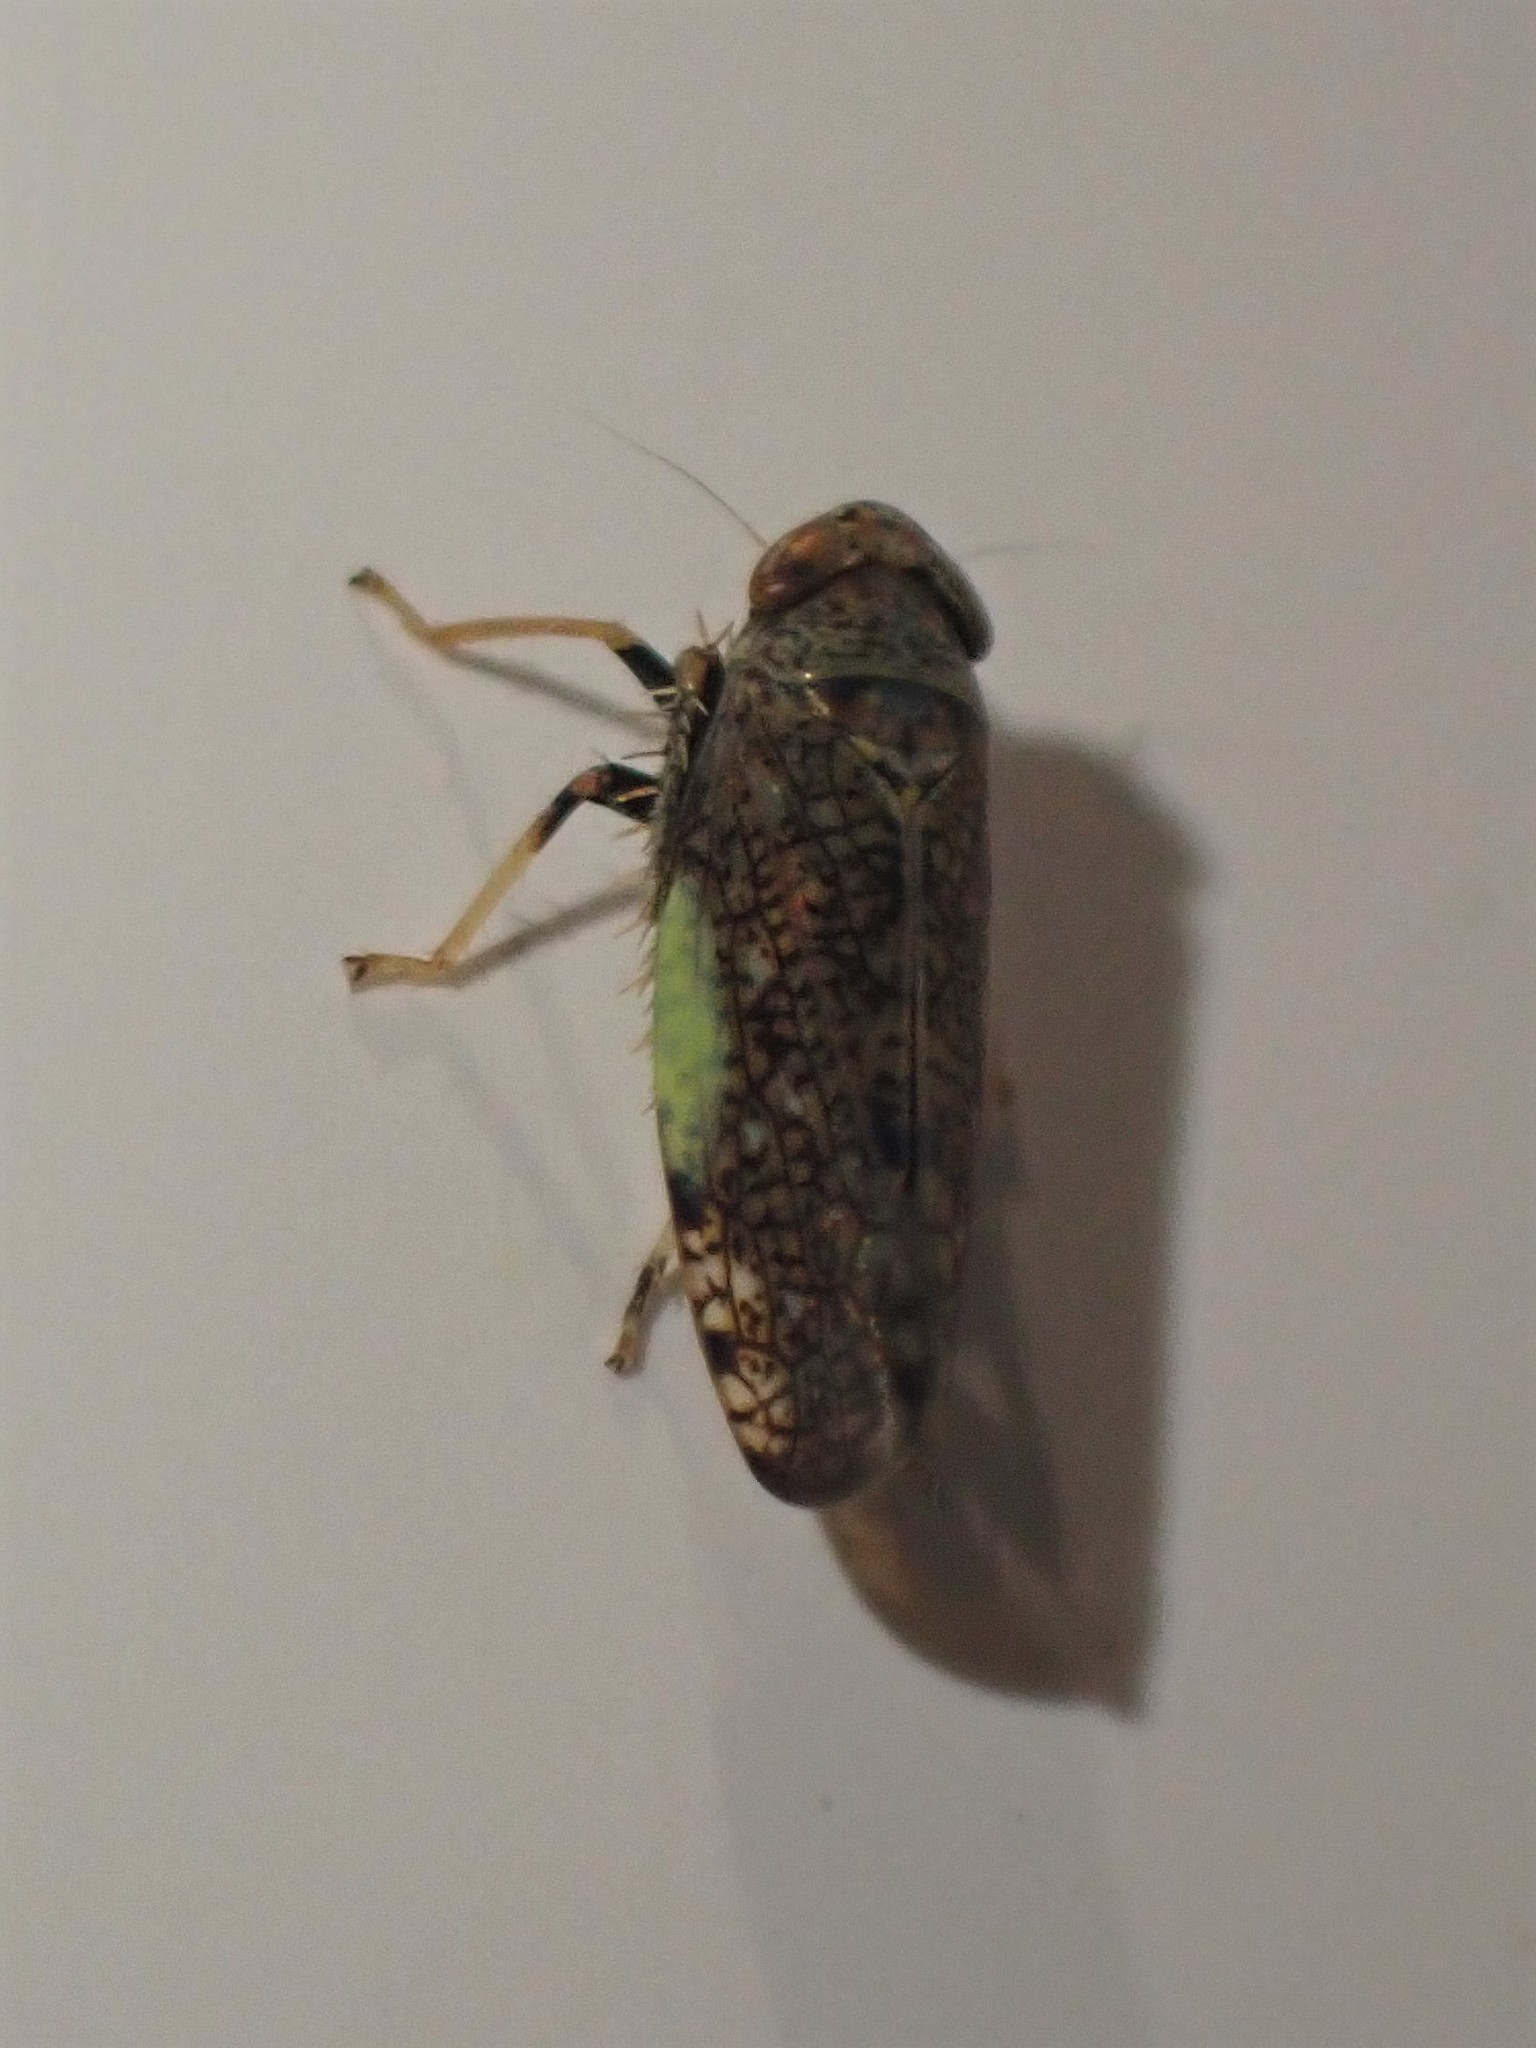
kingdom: Animalia
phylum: Arthropoda
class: Insecta
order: Hemiptera
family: Cicadellidae
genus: Orientus
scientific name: Orientus ishidae
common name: Japanese leafhopper
